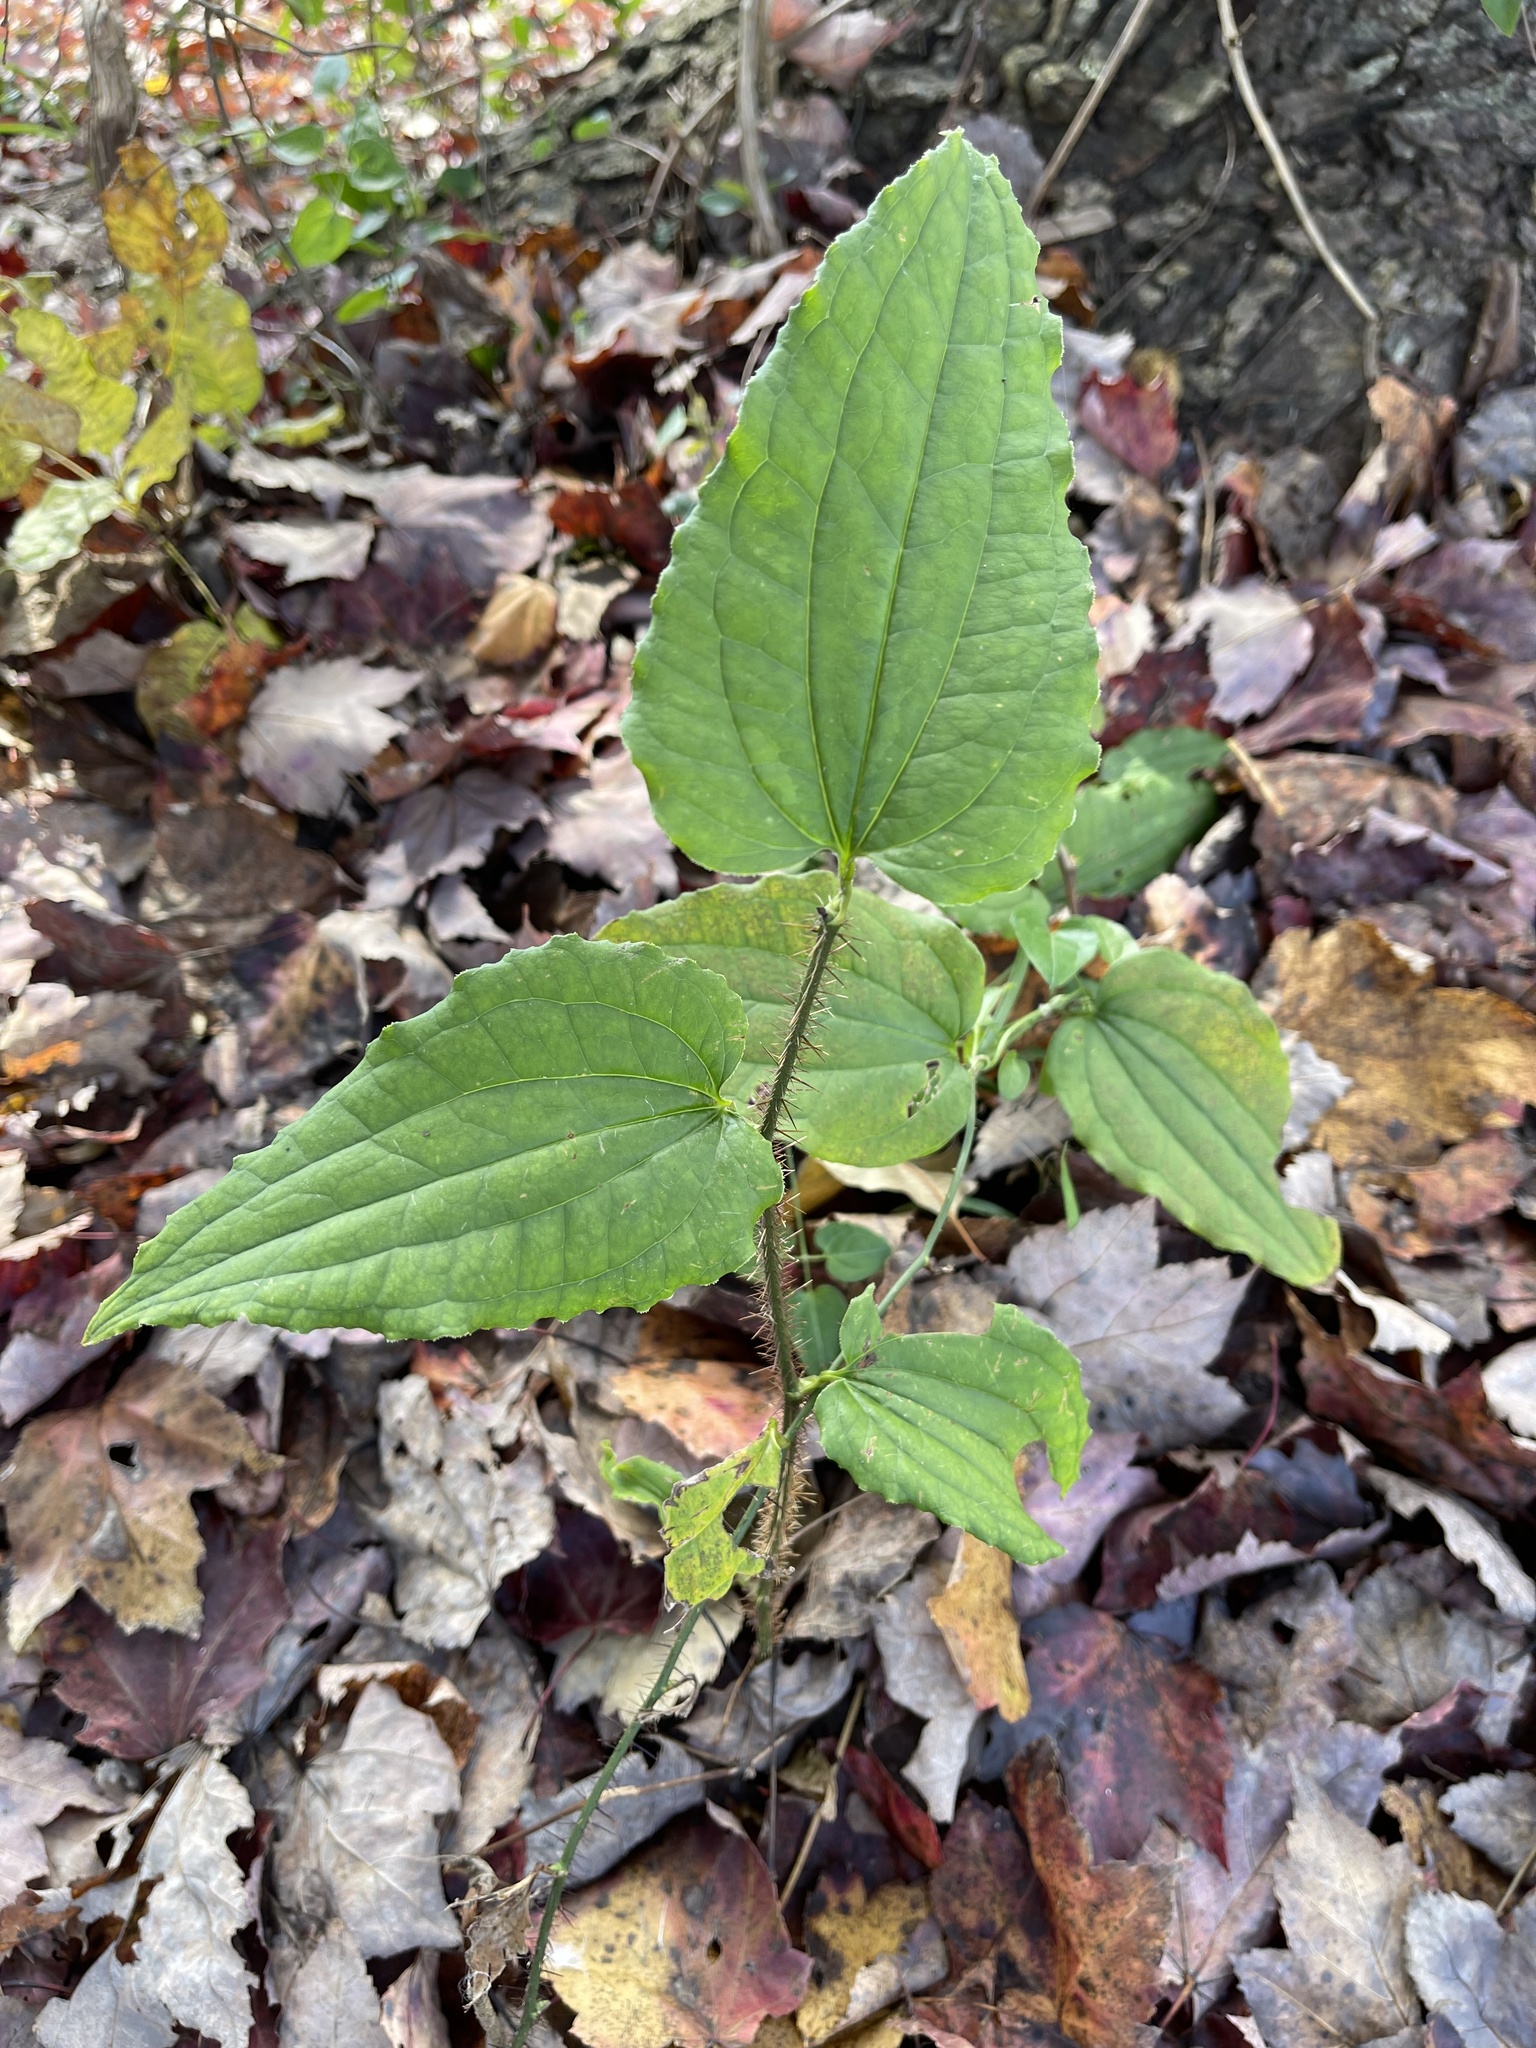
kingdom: Plantae
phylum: Tracheophyta
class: Liliopsida
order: Liliales
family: Smilacaceae
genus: Smilax
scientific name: Smilax tamnoides
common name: Hellfetter
